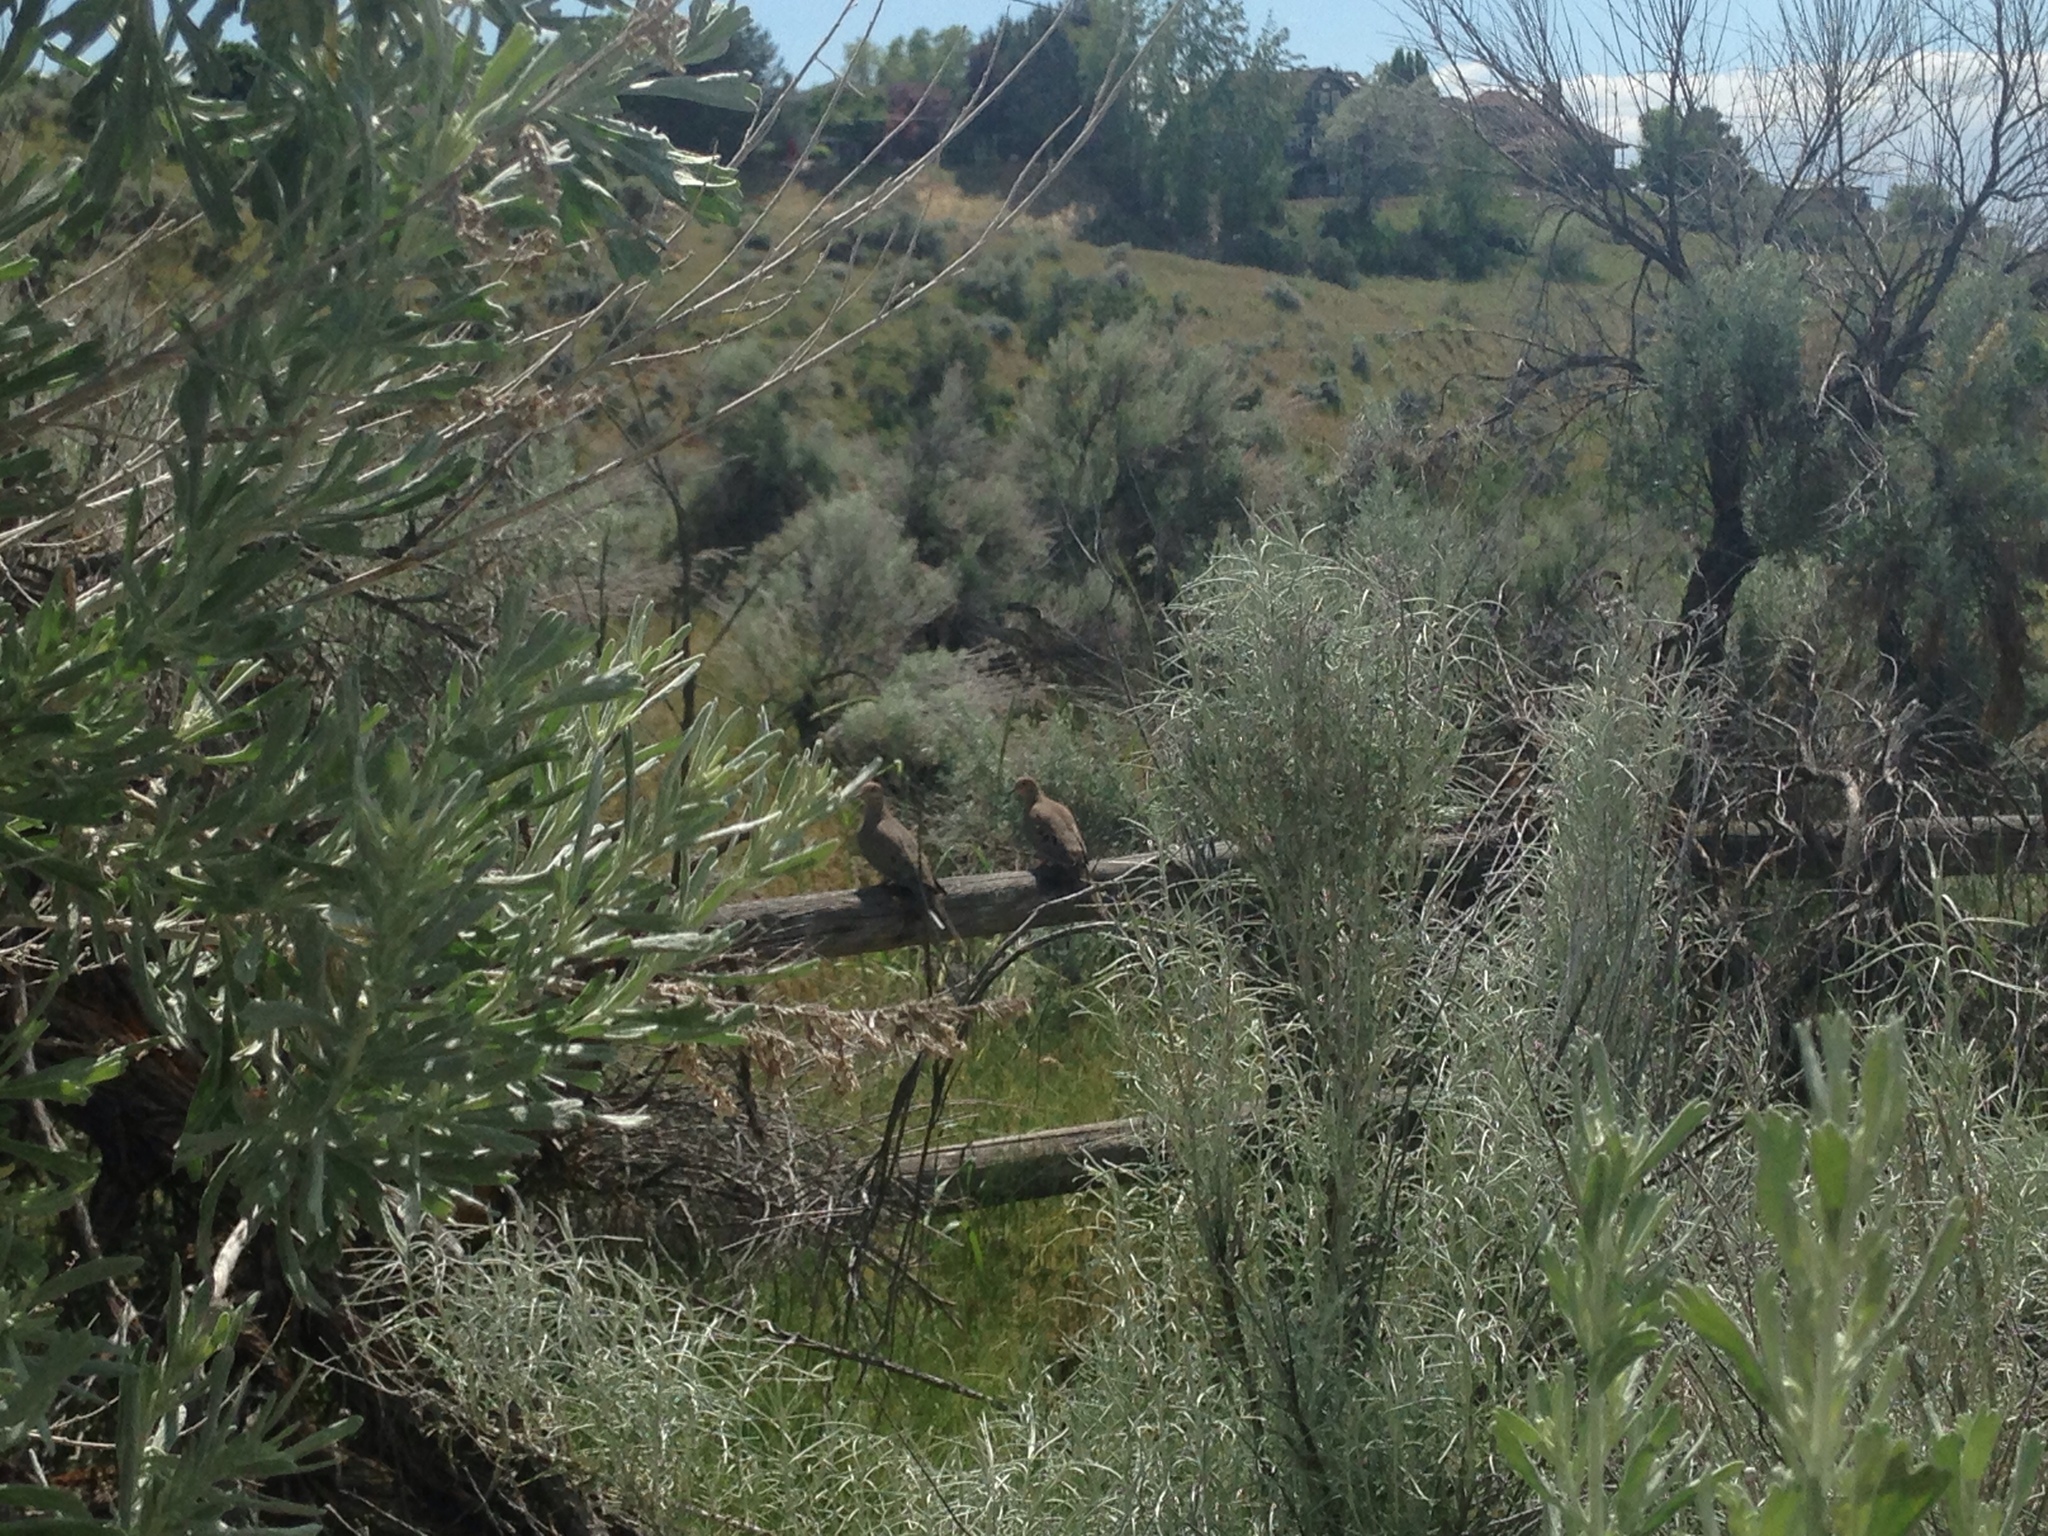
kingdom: Animalia
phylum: Chordata
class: Aves
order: Columbiformes
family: Columbidae
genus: Zenaida
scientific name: Zenaida macroura
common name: Mourning dove
